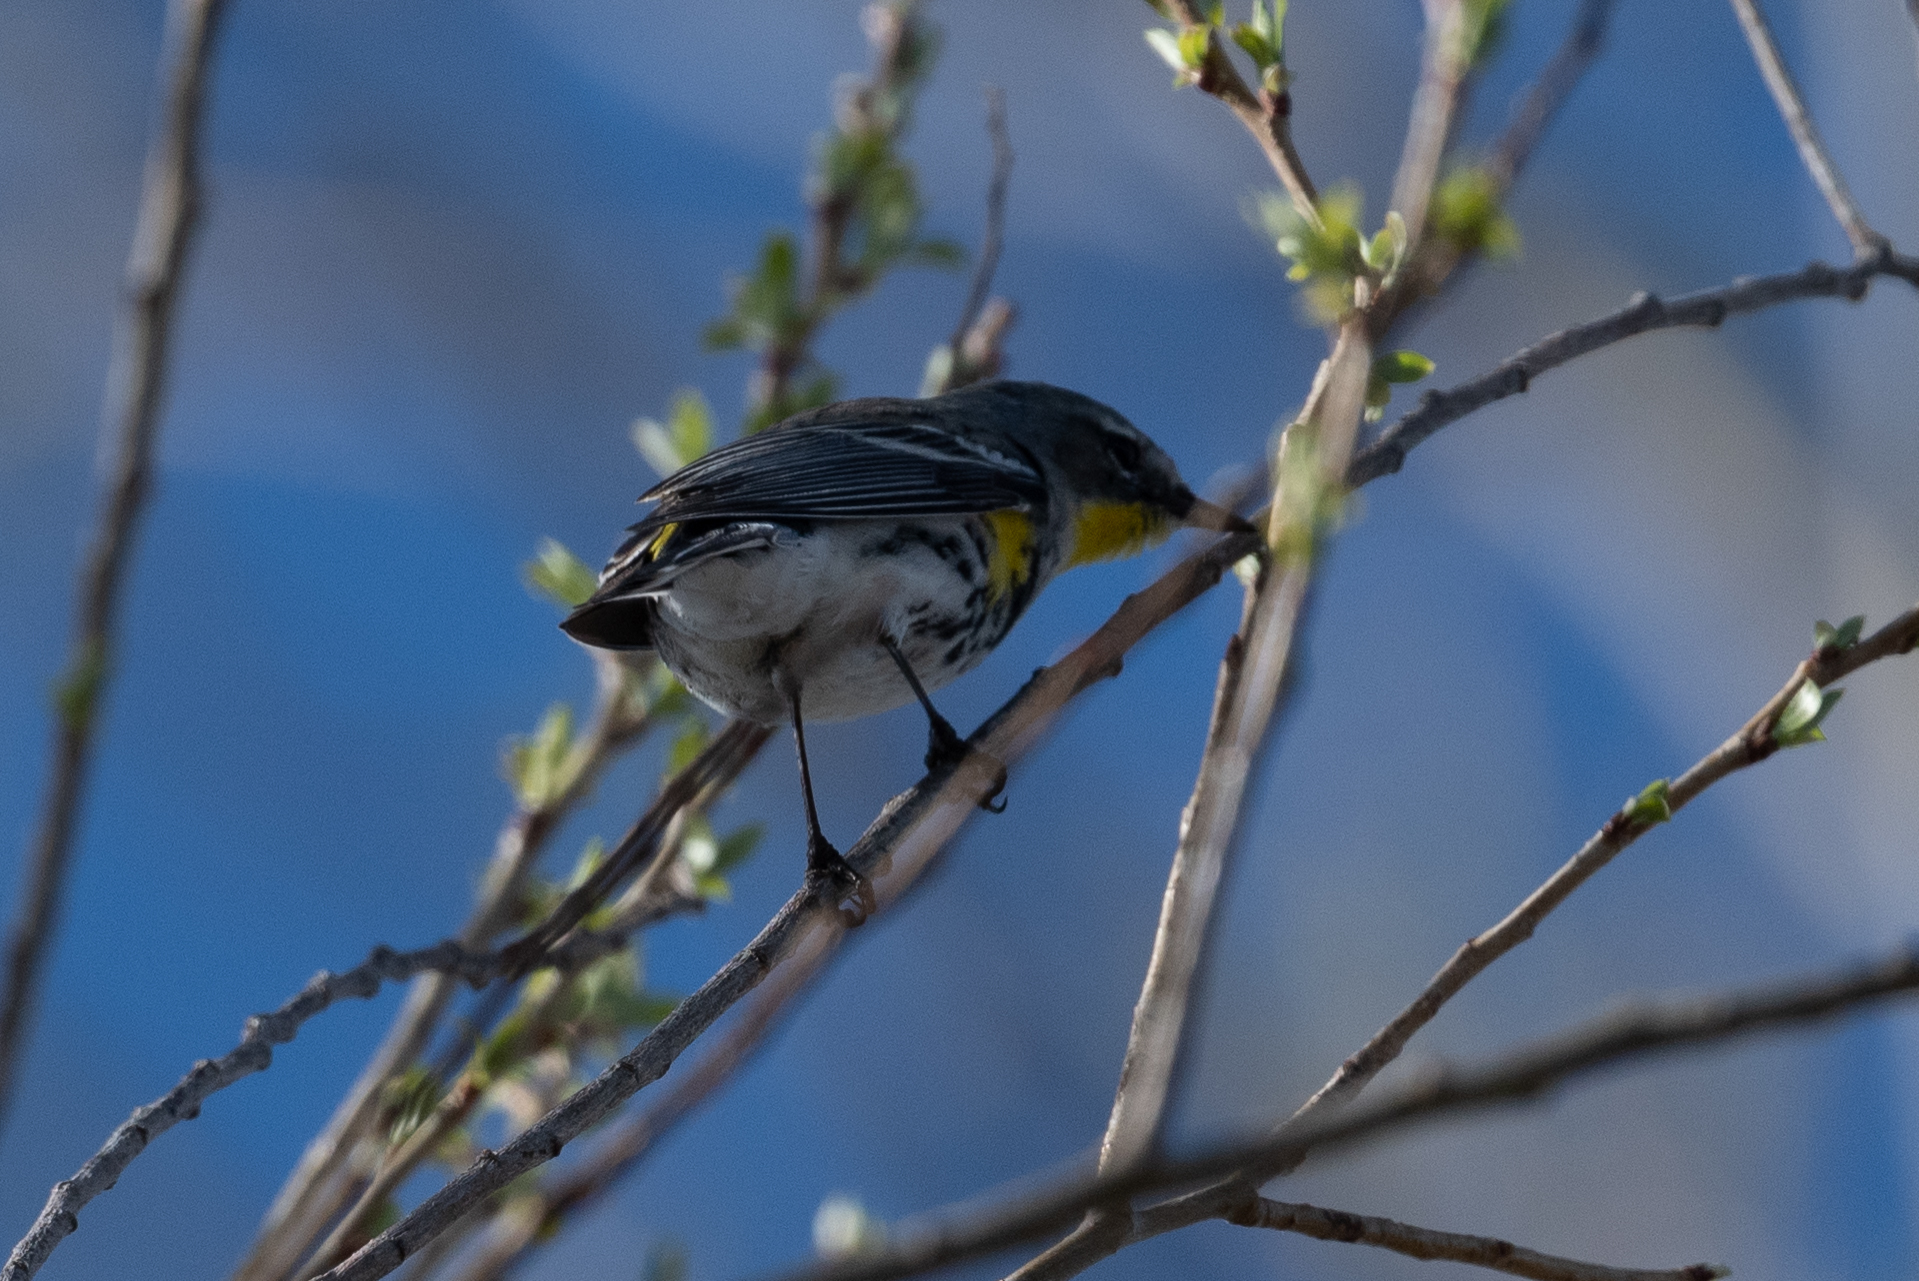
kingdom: Animalia
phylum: Chordata
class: Aves
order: Passeriformes
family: Parulidae
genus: Setophaga
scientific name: Setophaga coronata
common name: Myrtle warbler
